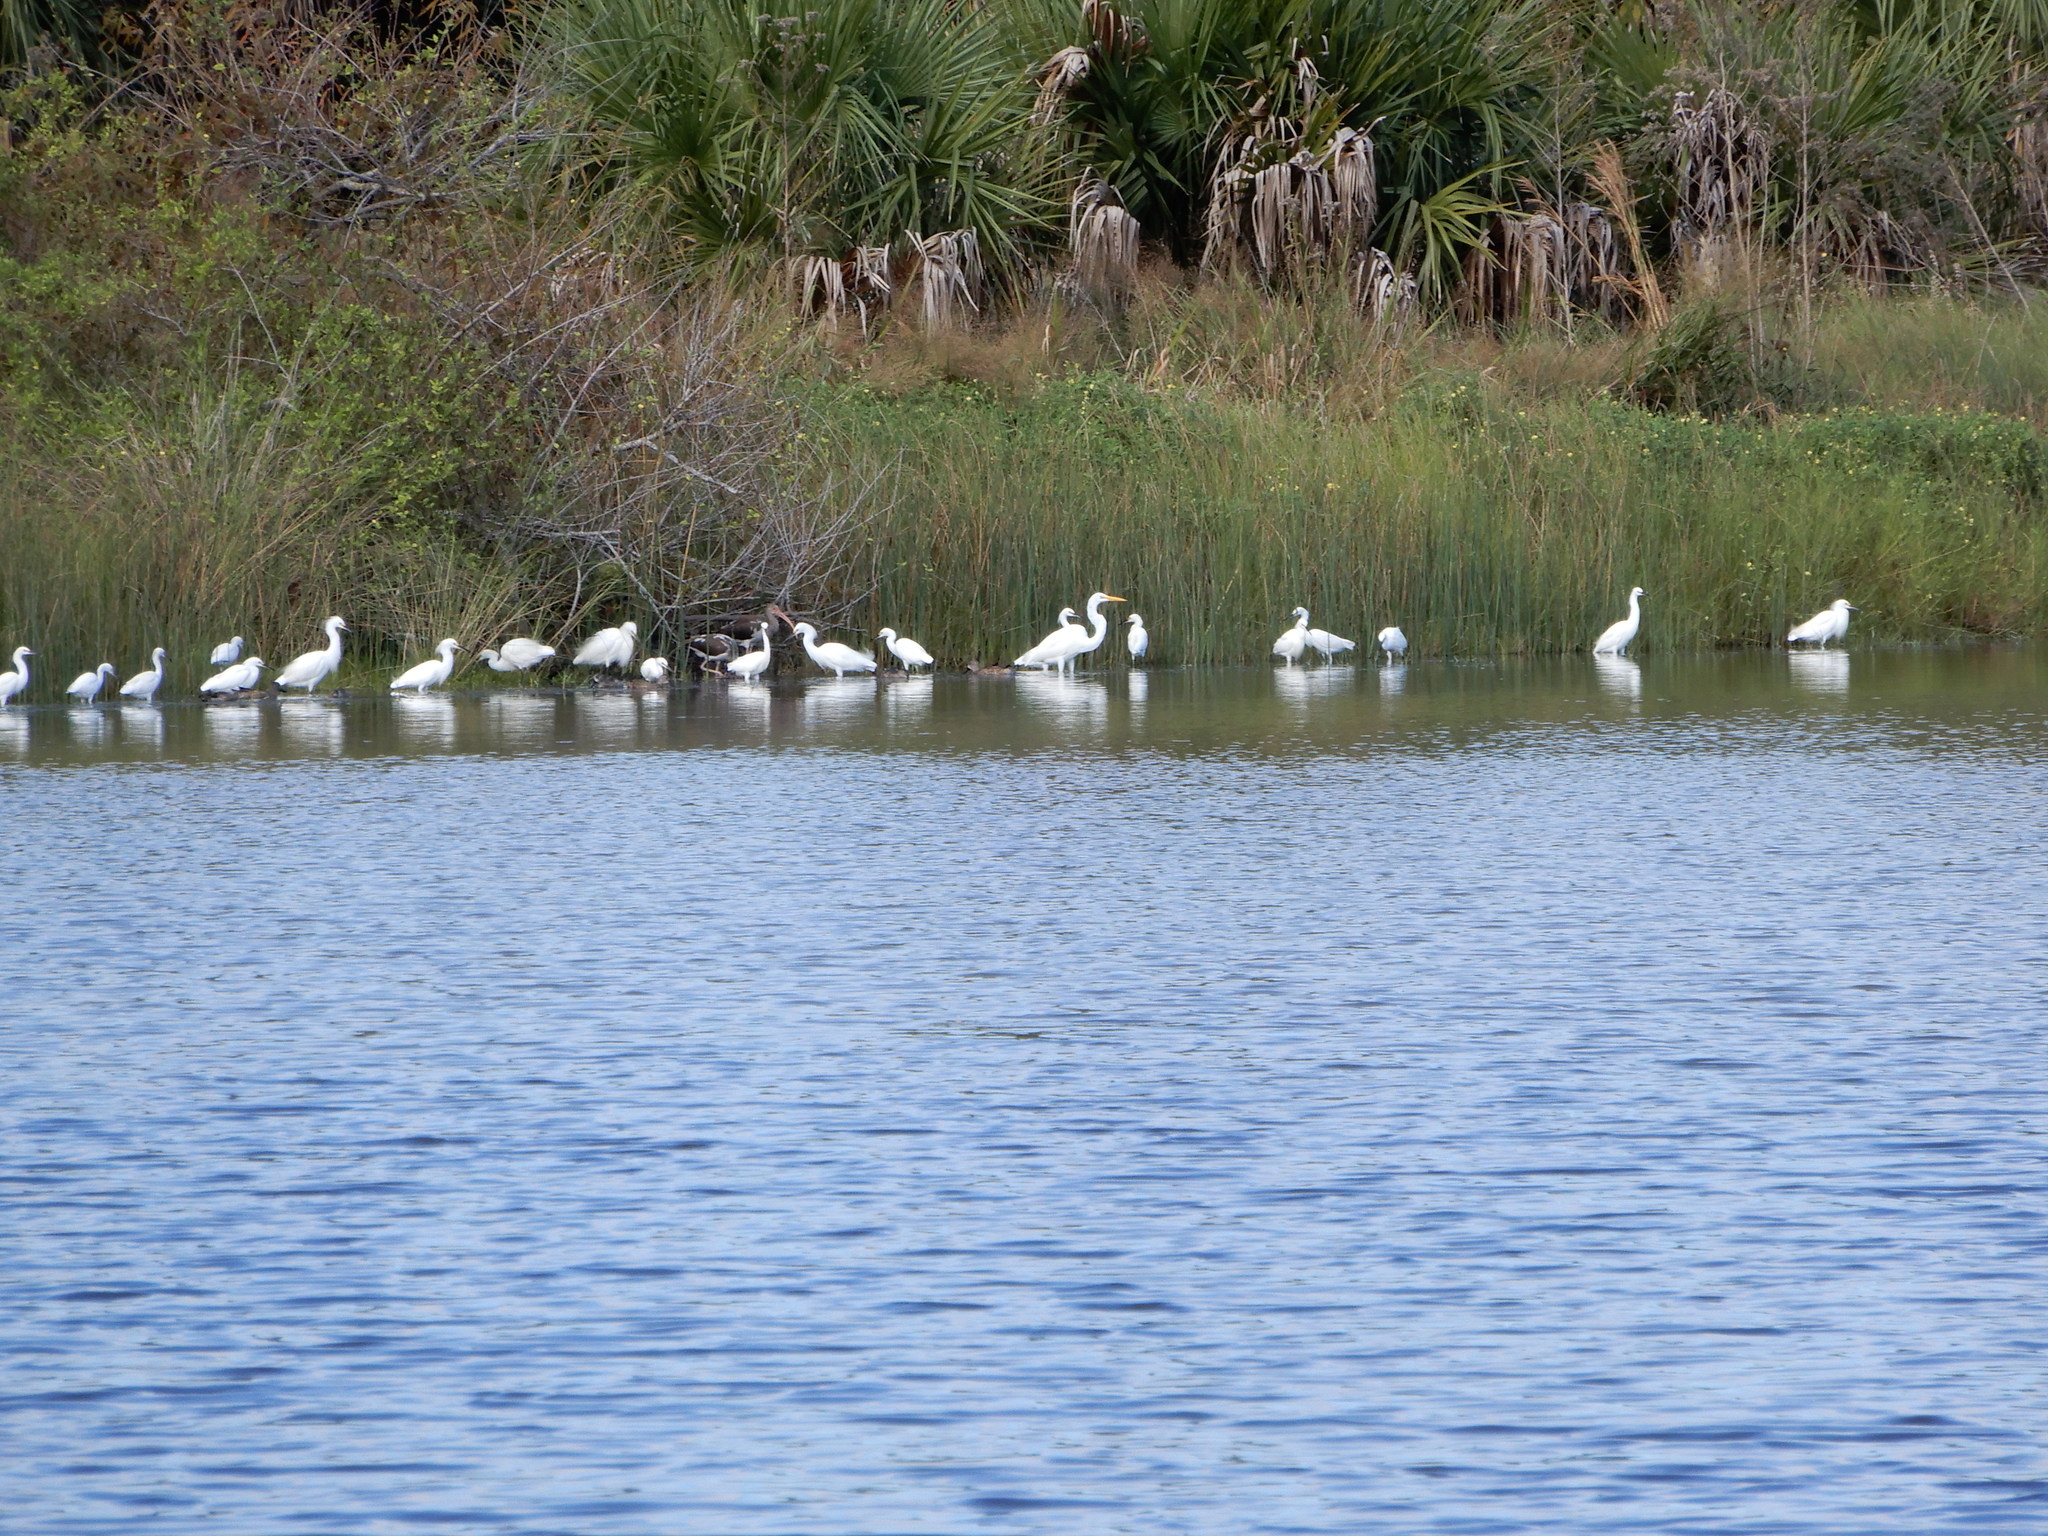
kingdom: Animalia
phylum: Chordata
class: Aves
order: Pelecaniformes
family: Threskiornithidae
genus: Eudocimus
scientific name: Eudocimus albus
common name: White ibis
